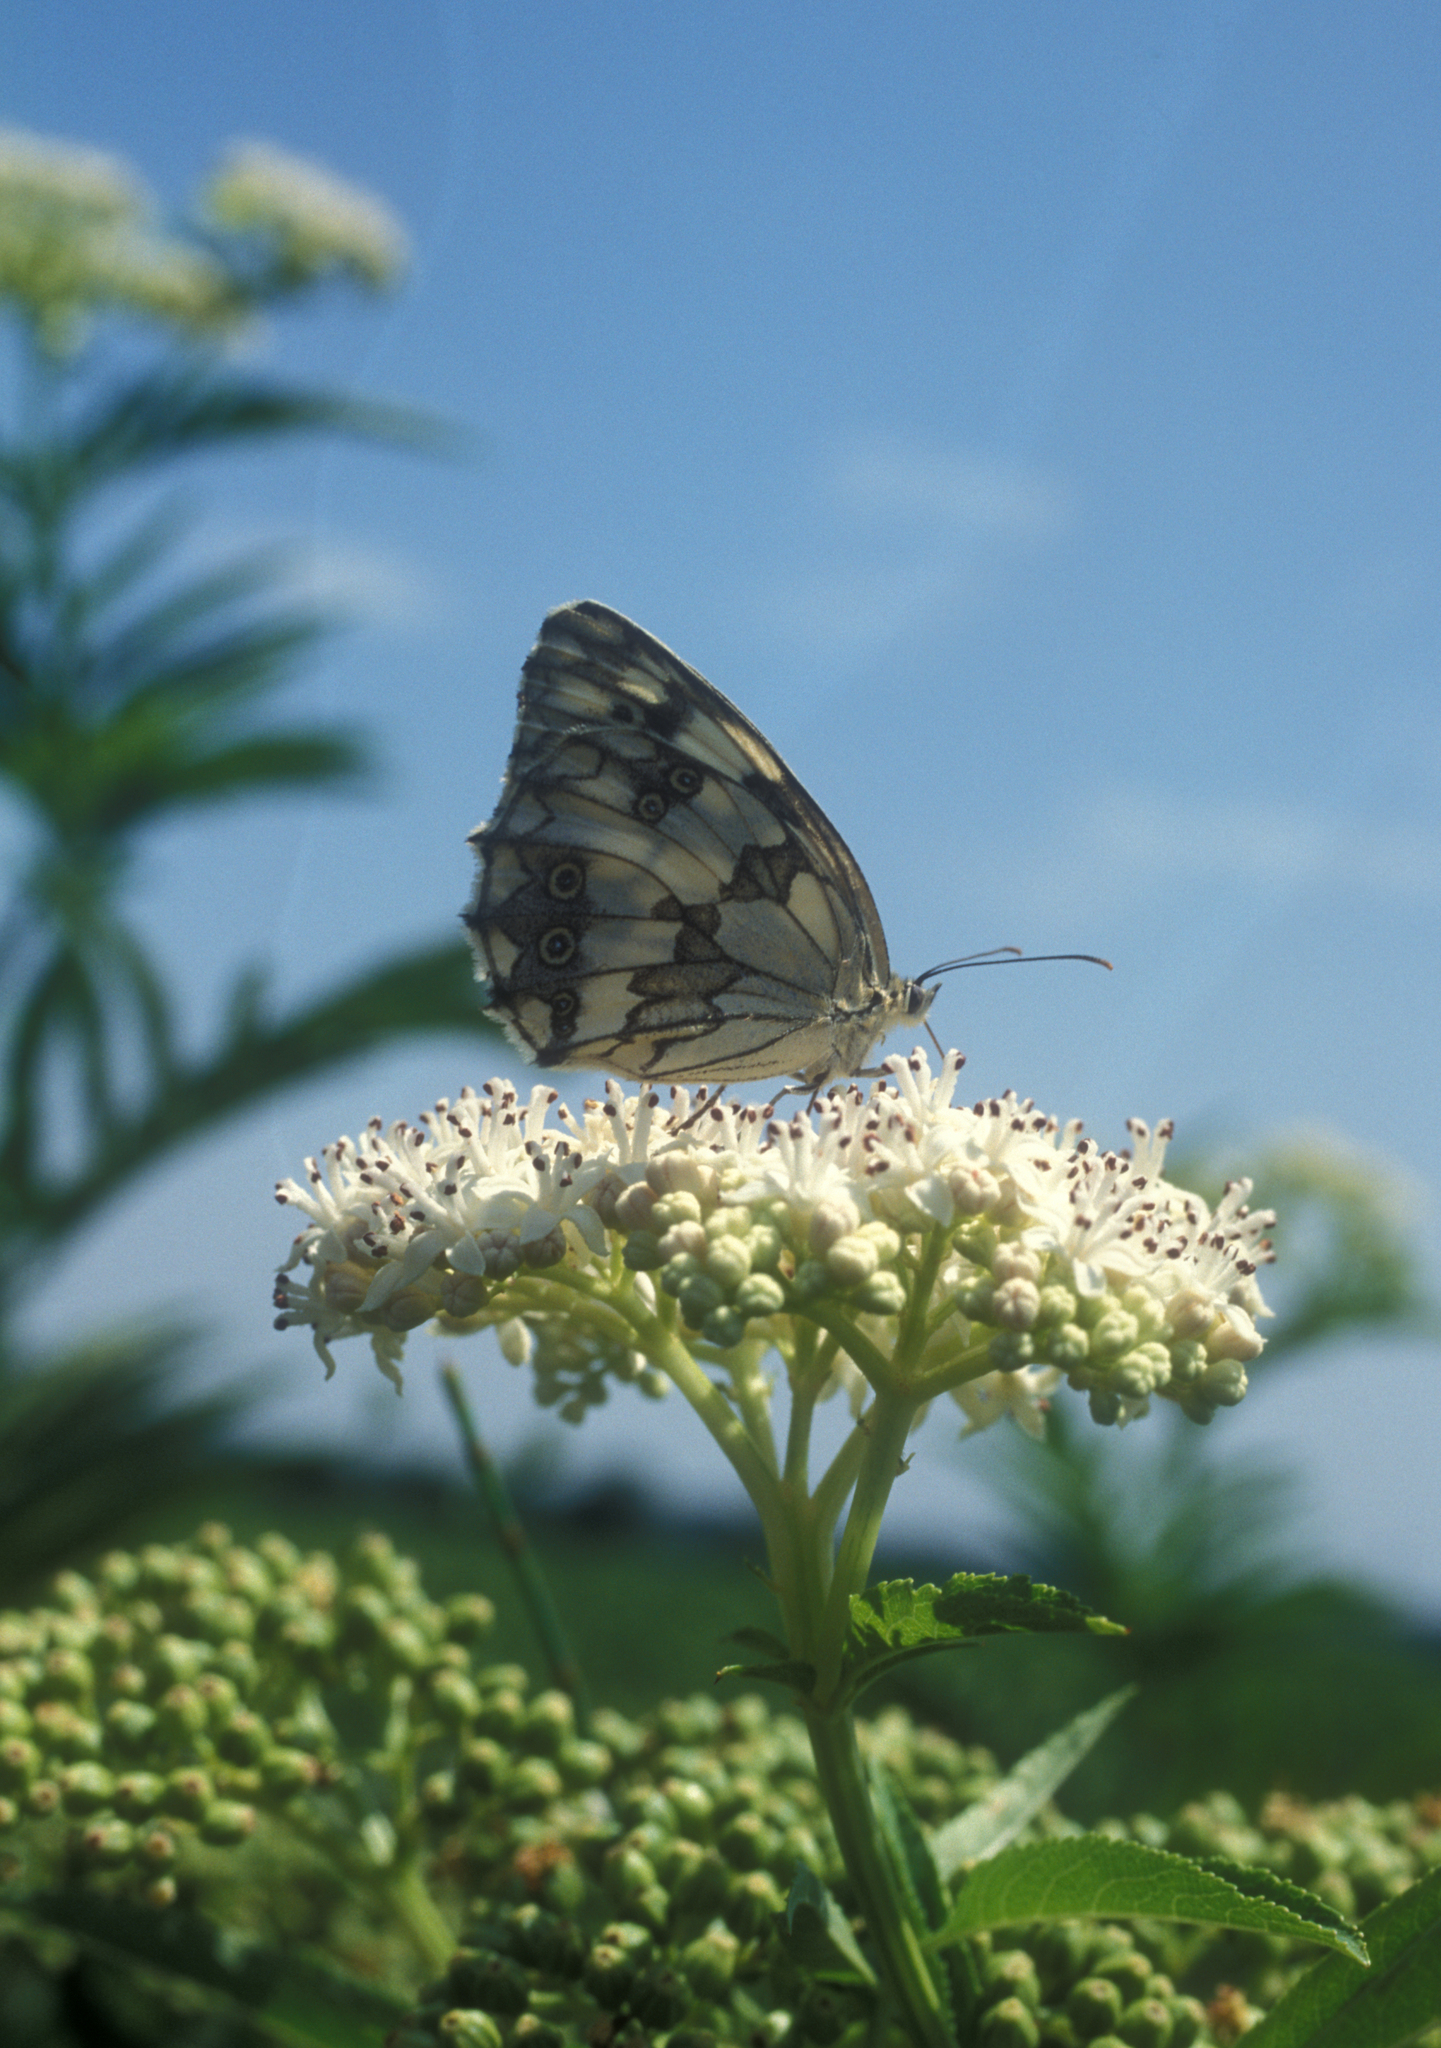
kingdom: Plantae
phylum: Tracheophyta
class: Magnoliopsida
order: Dipsacales
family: Viburnaceae
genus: Sambucus
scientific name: Sambucus ebulus
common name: Dwarf elder
